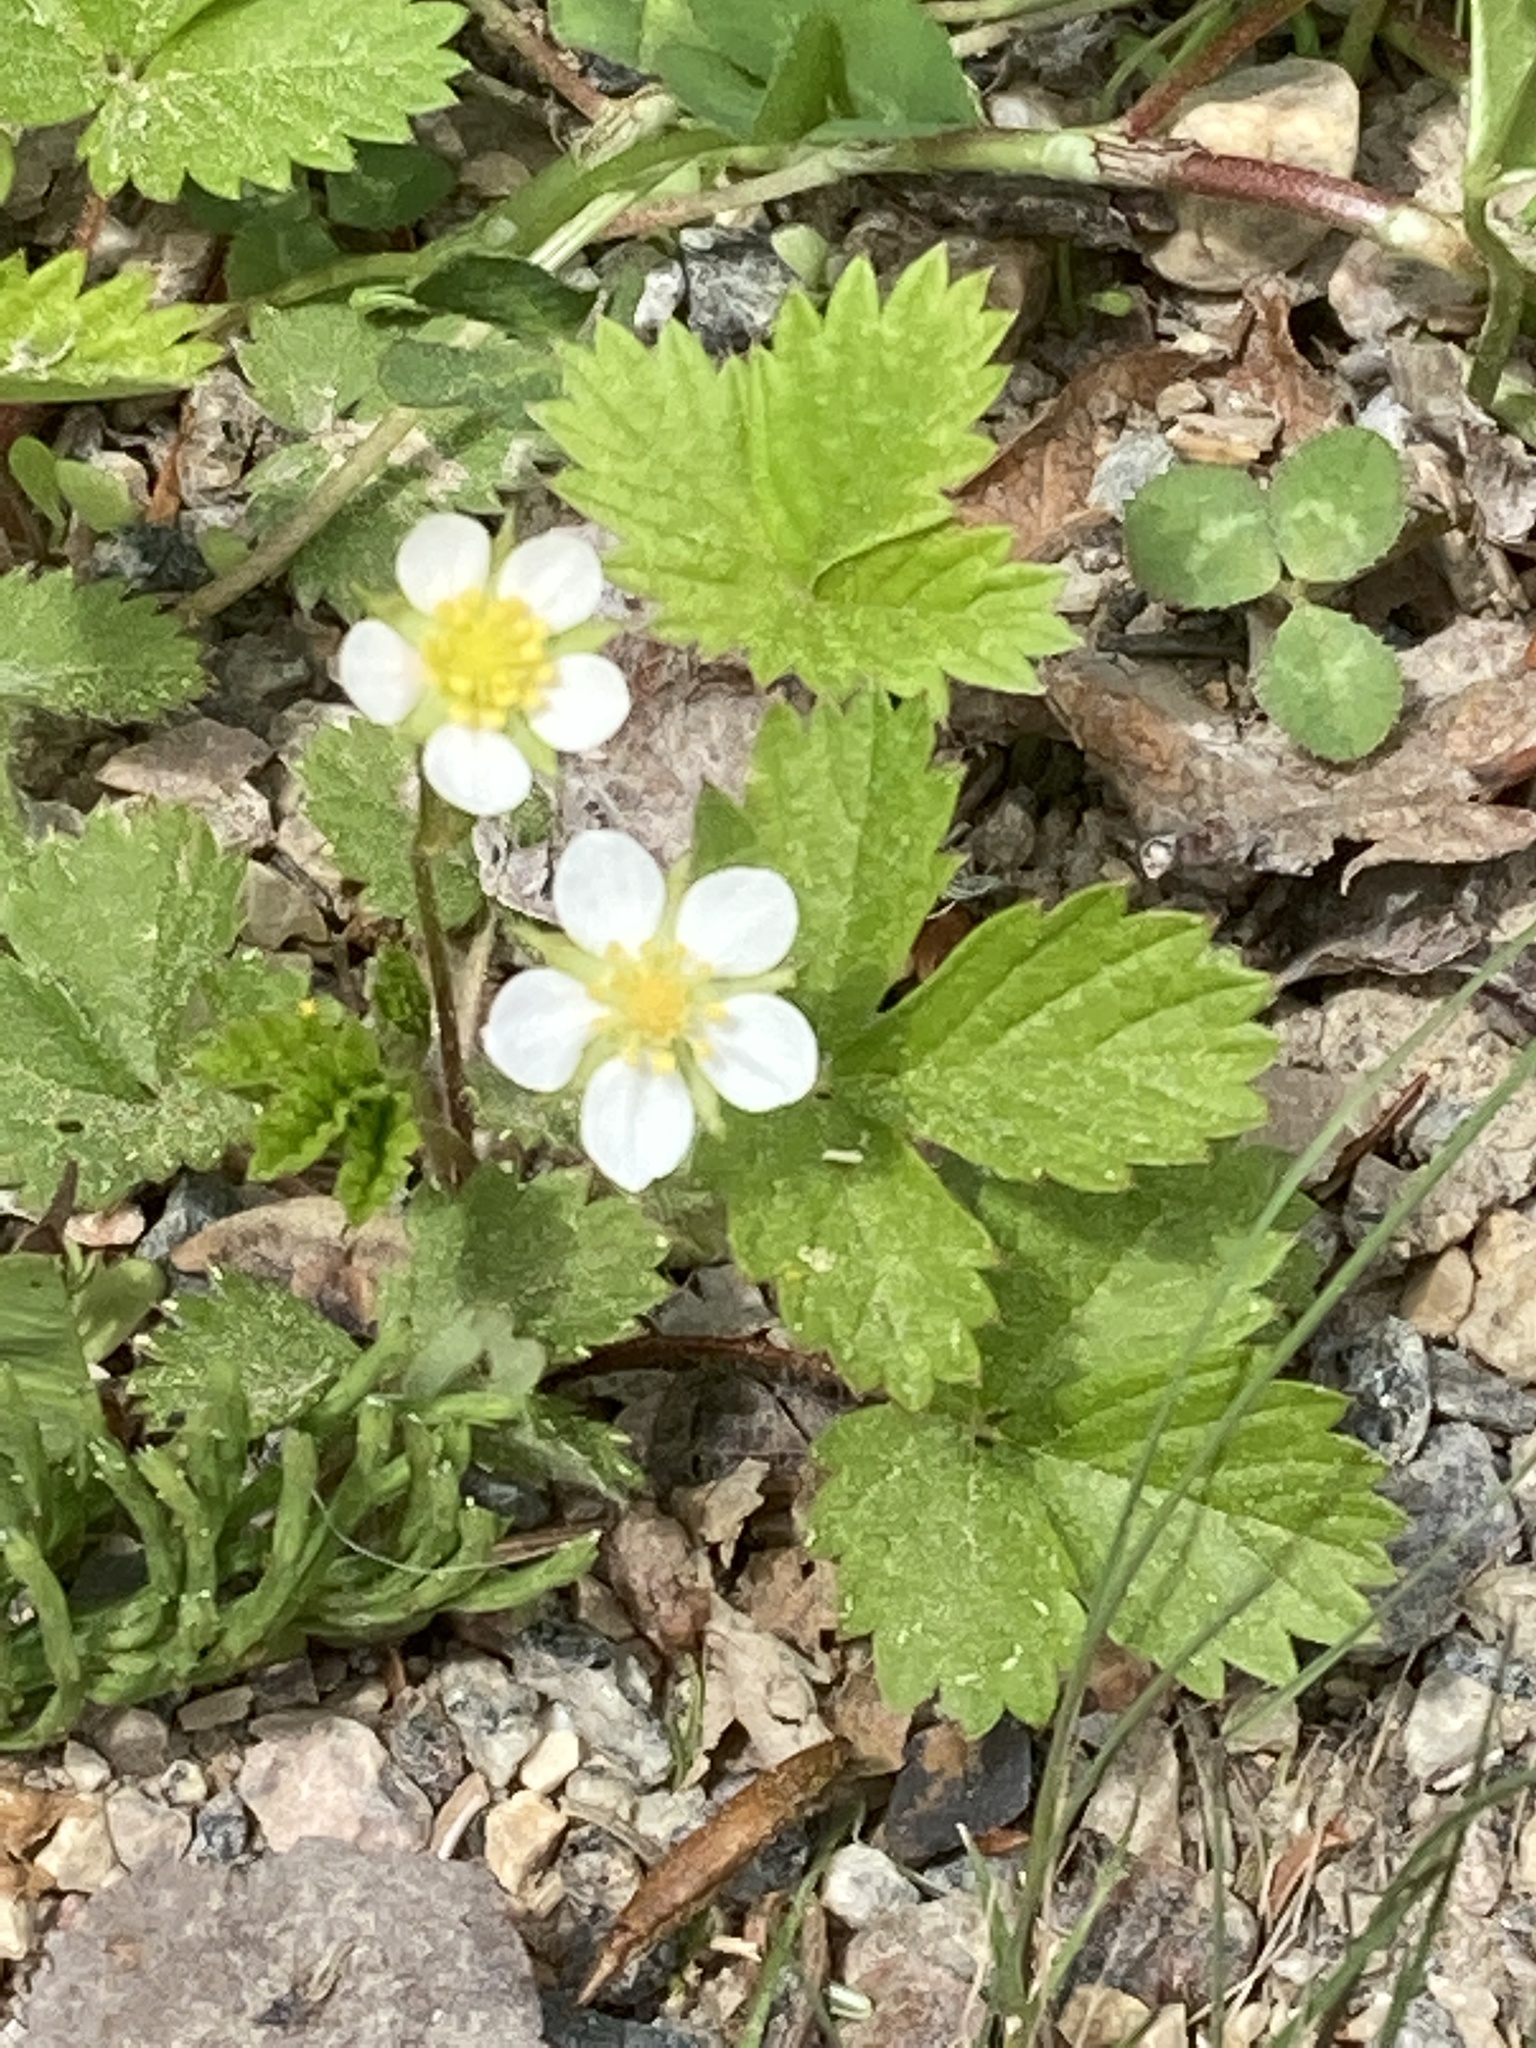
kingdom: Plantae
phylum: Tracheophyta
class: Magnoliopsida
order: Rosales
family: Rosaceae
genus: Fragaria
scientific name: Fragaria vesca
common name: Wild strawberry
